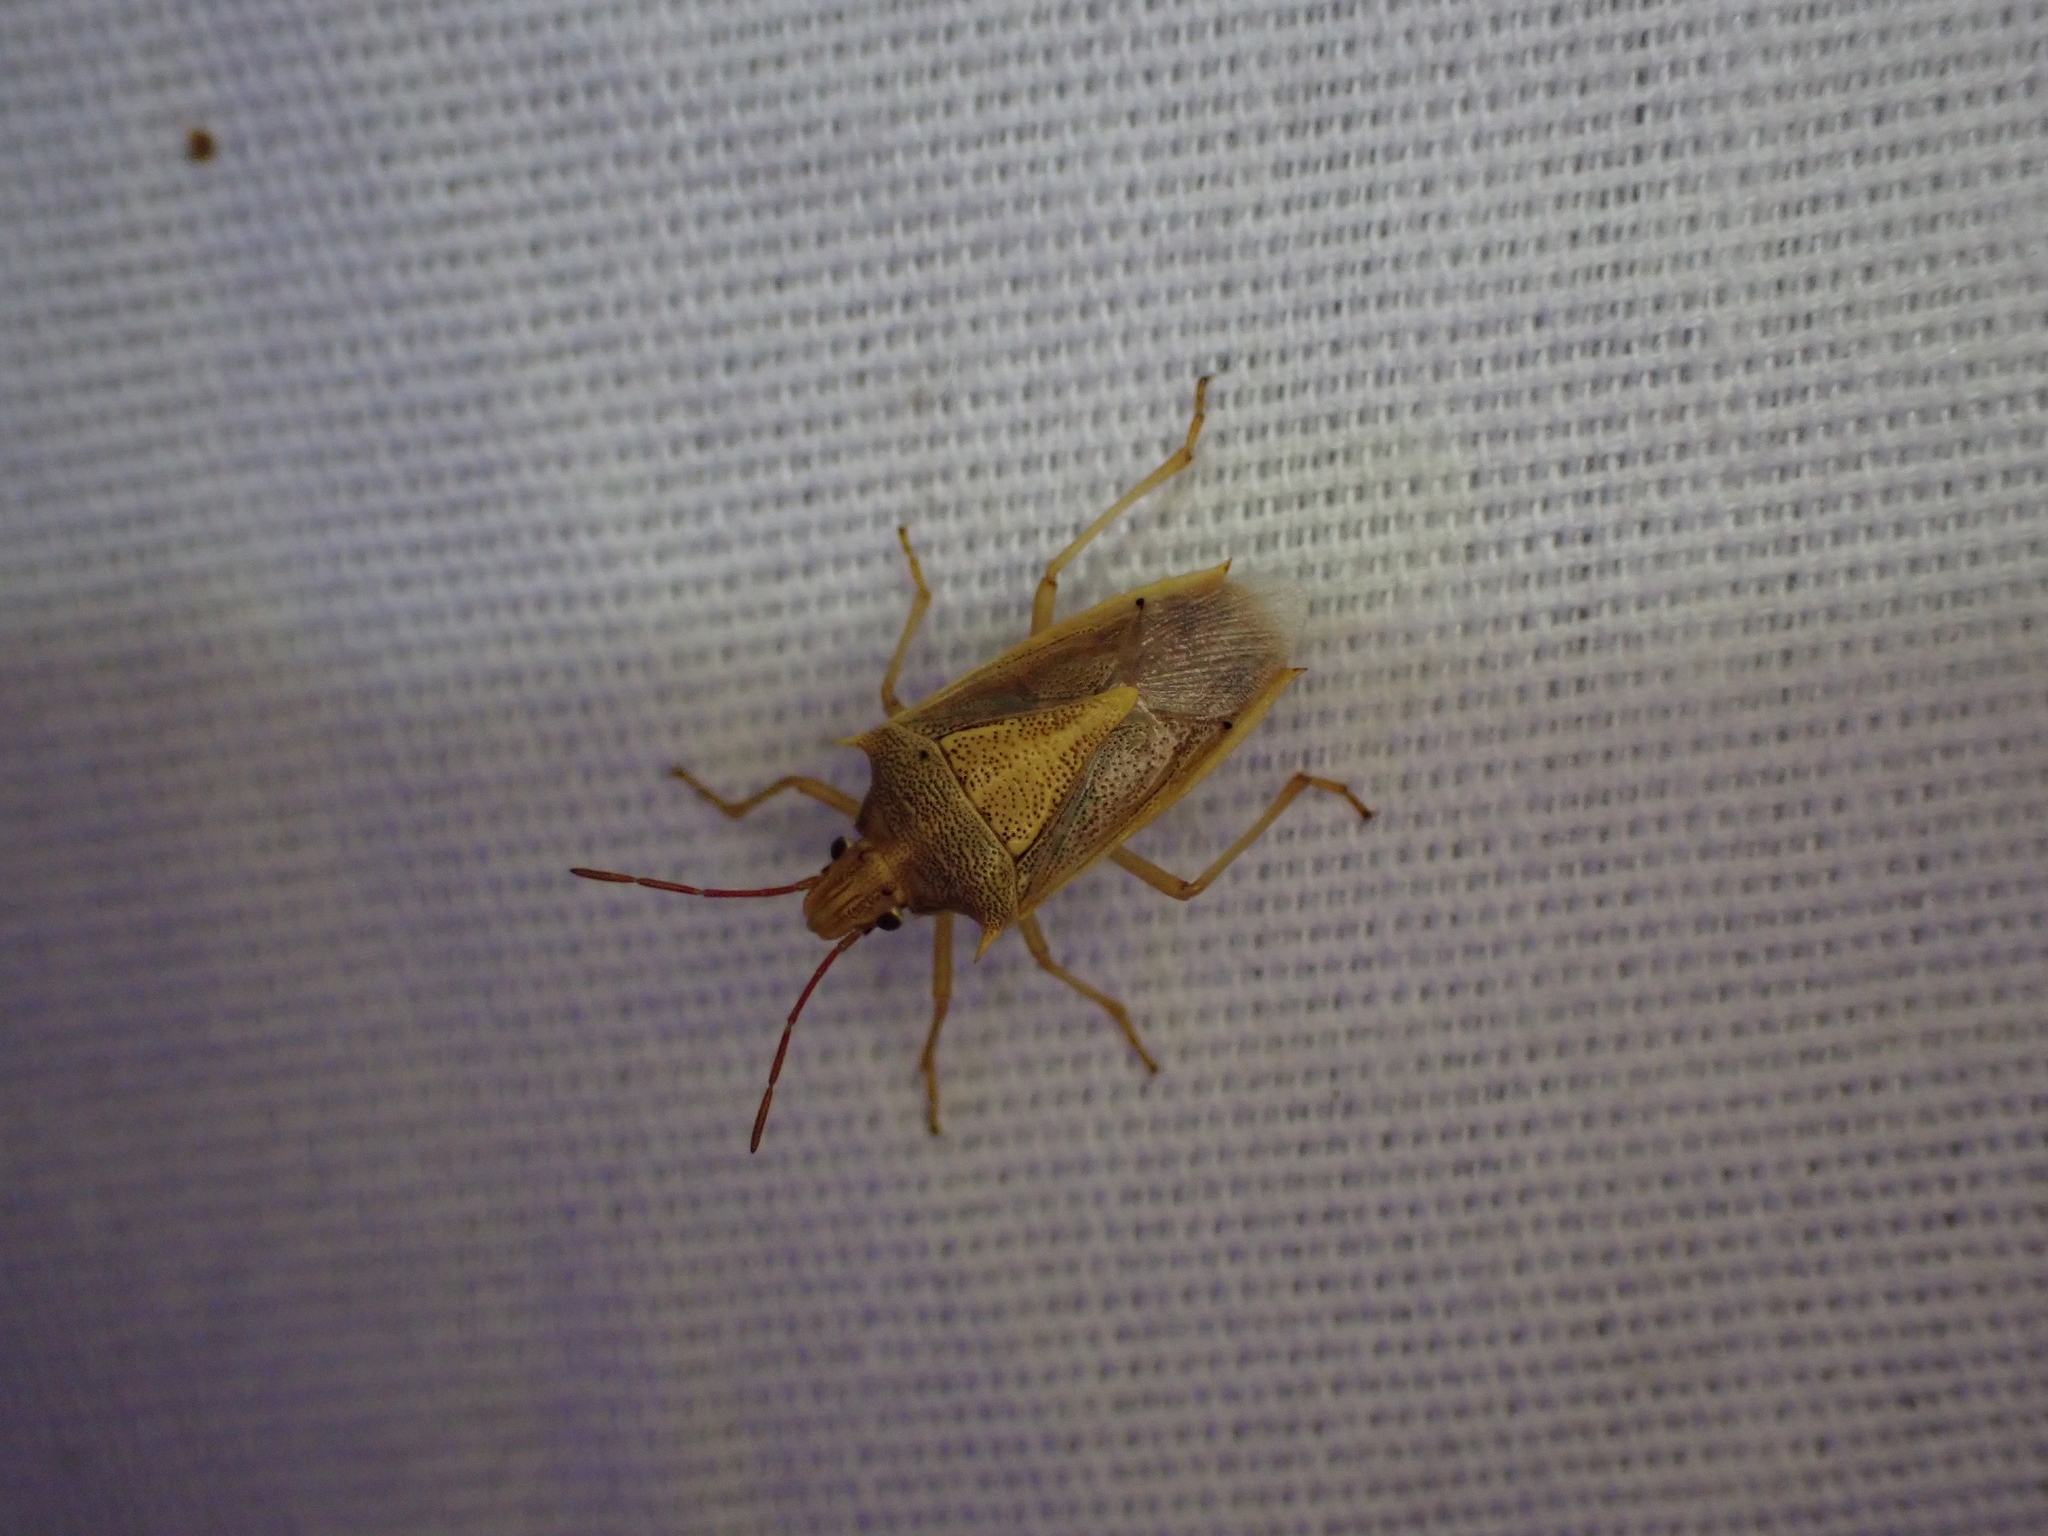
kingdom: Animalia
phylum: Arthropoda
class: Insecta
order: Hemiptera
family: Pentatomidae
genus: Oebalus
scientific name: Oebalus pugnax
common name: Rice stink bug
